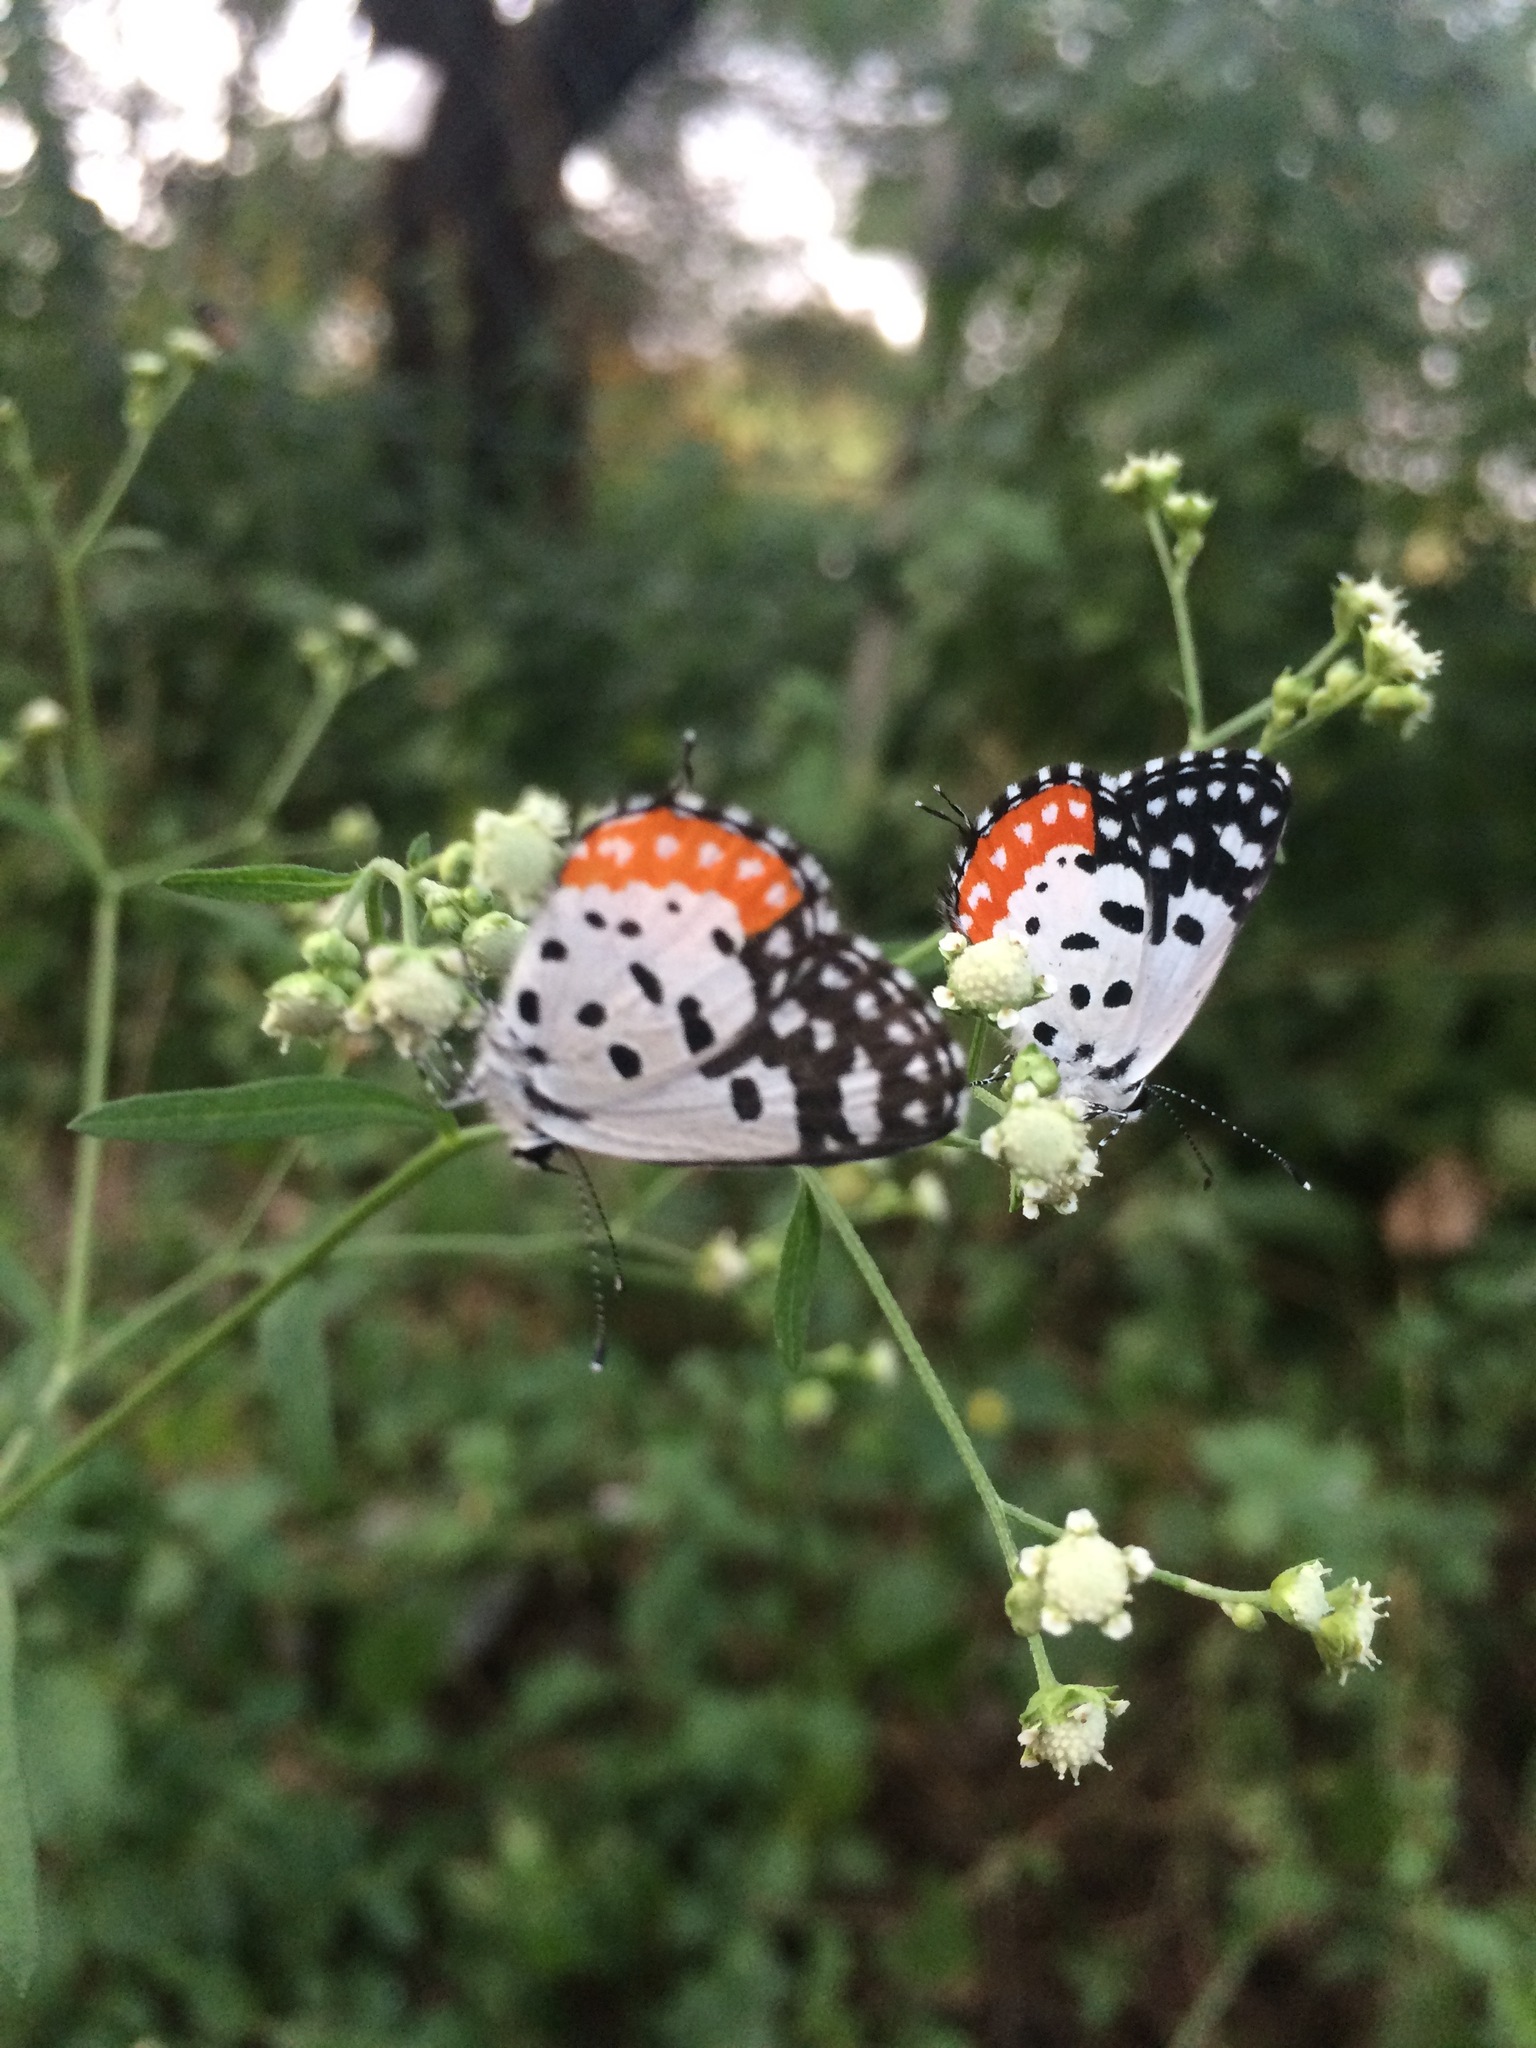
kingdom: Animalia
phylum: Arthropoda
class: Insecta
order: Lepidoptera
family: Lycaenidae
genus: Talicada
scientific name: Talicada nyseus
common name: Red pierrot
